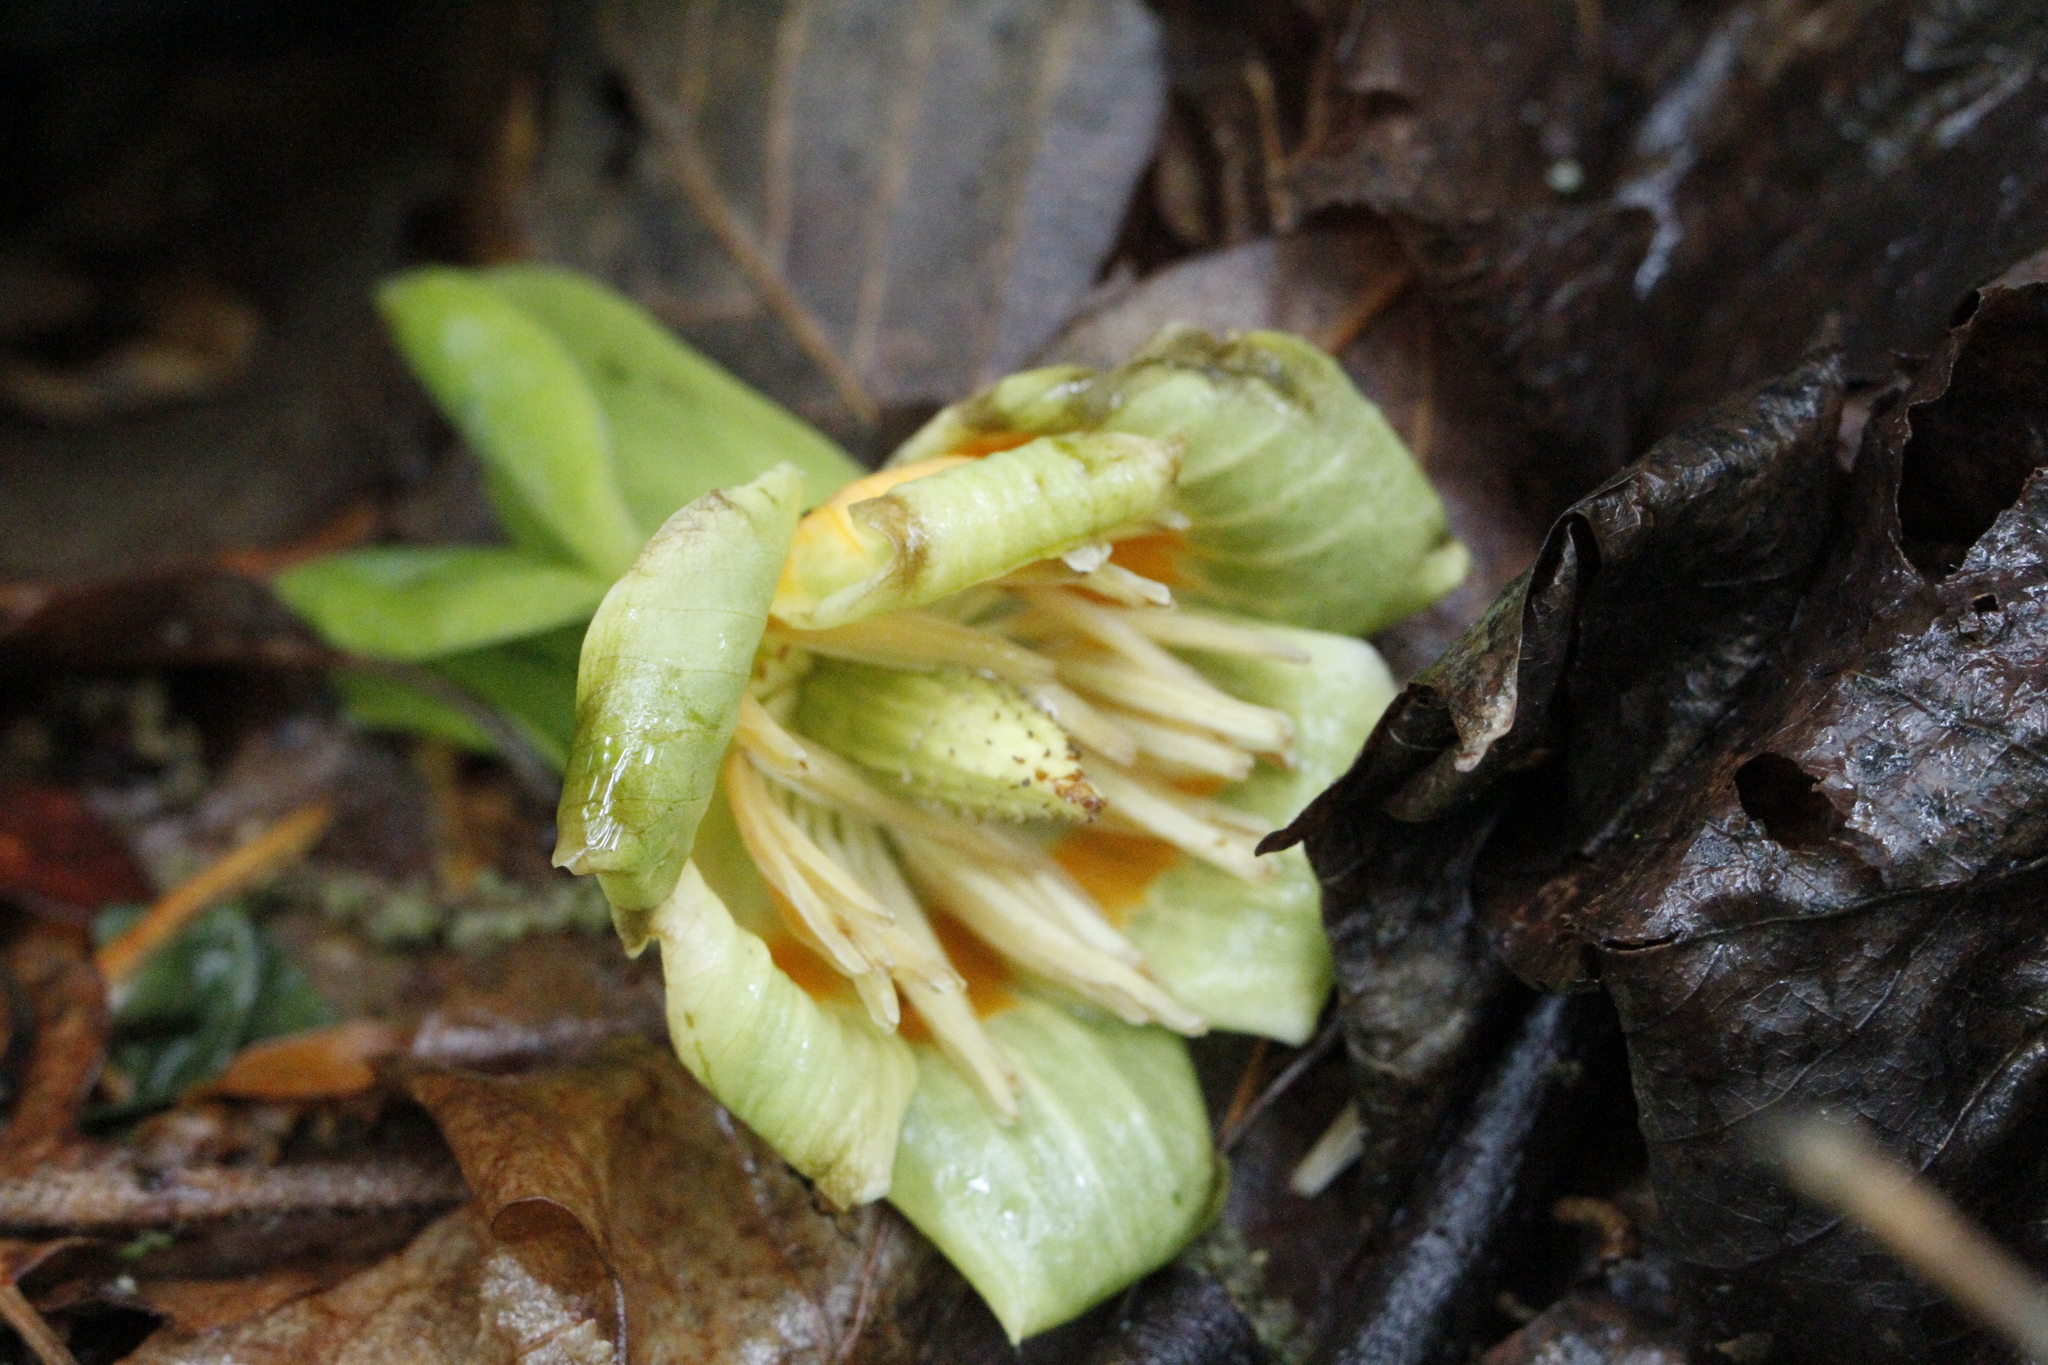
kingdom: Plantae
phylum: Tracheophyta
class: Magnoliopsida
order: Magnoliales
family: Magnoliaceae
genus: Liriodendron
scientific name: Liriodendron tulipifera
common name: Tulip tree
